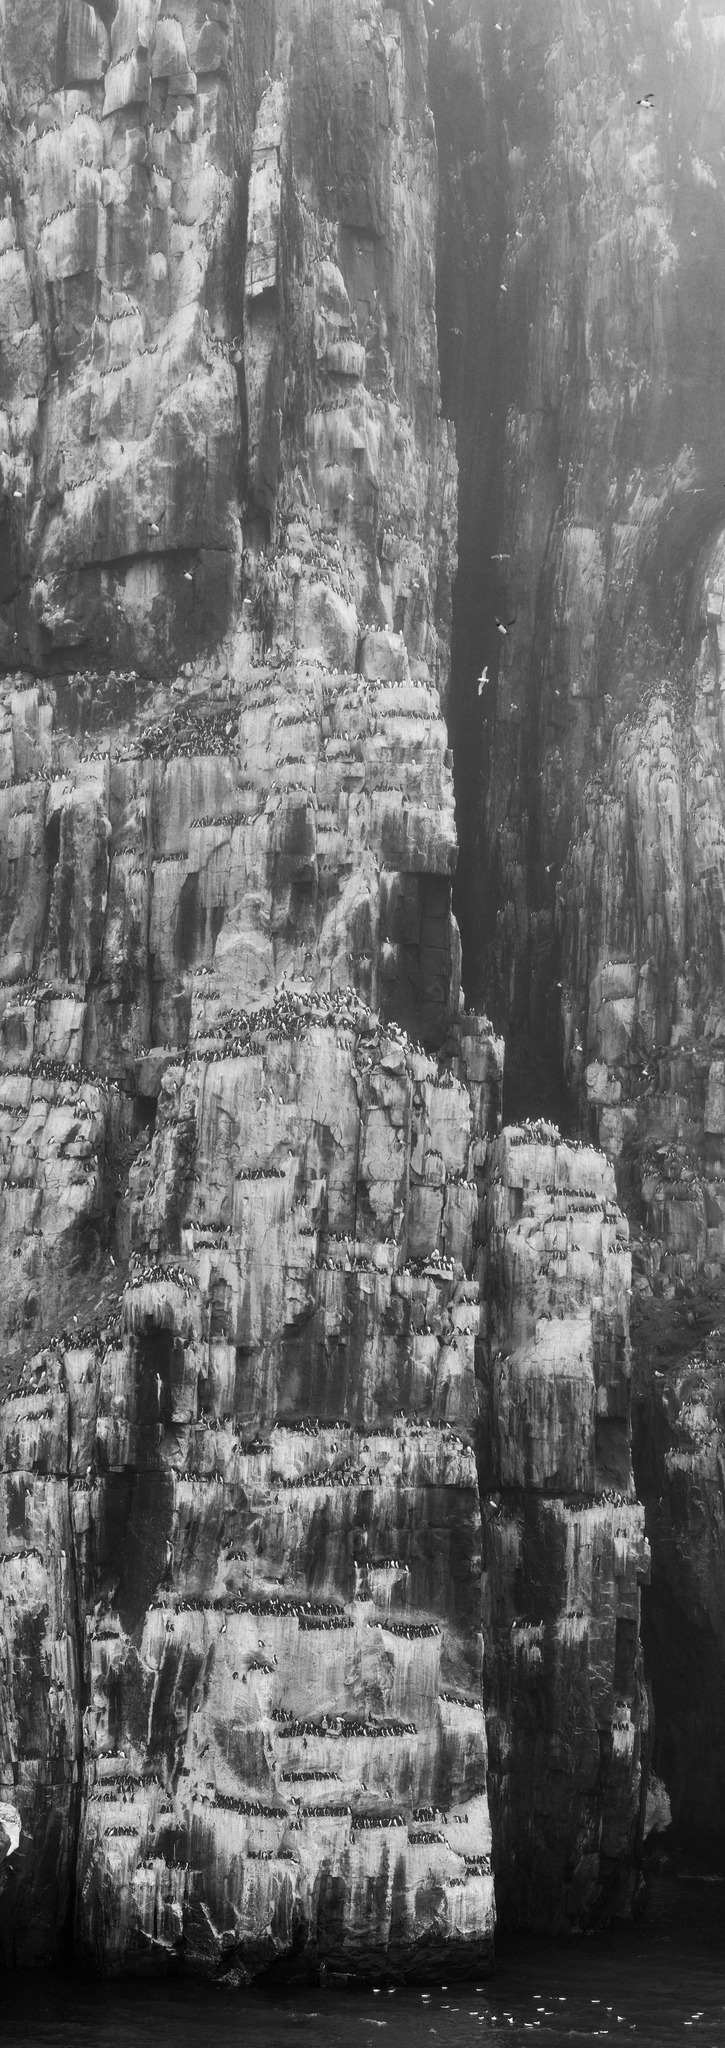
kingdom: Animalia
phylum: Chordata
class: Aves
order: Charadriiformes
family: Alcidae
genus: Uria
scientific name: Uria lomvia
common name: Thick-billed murre
